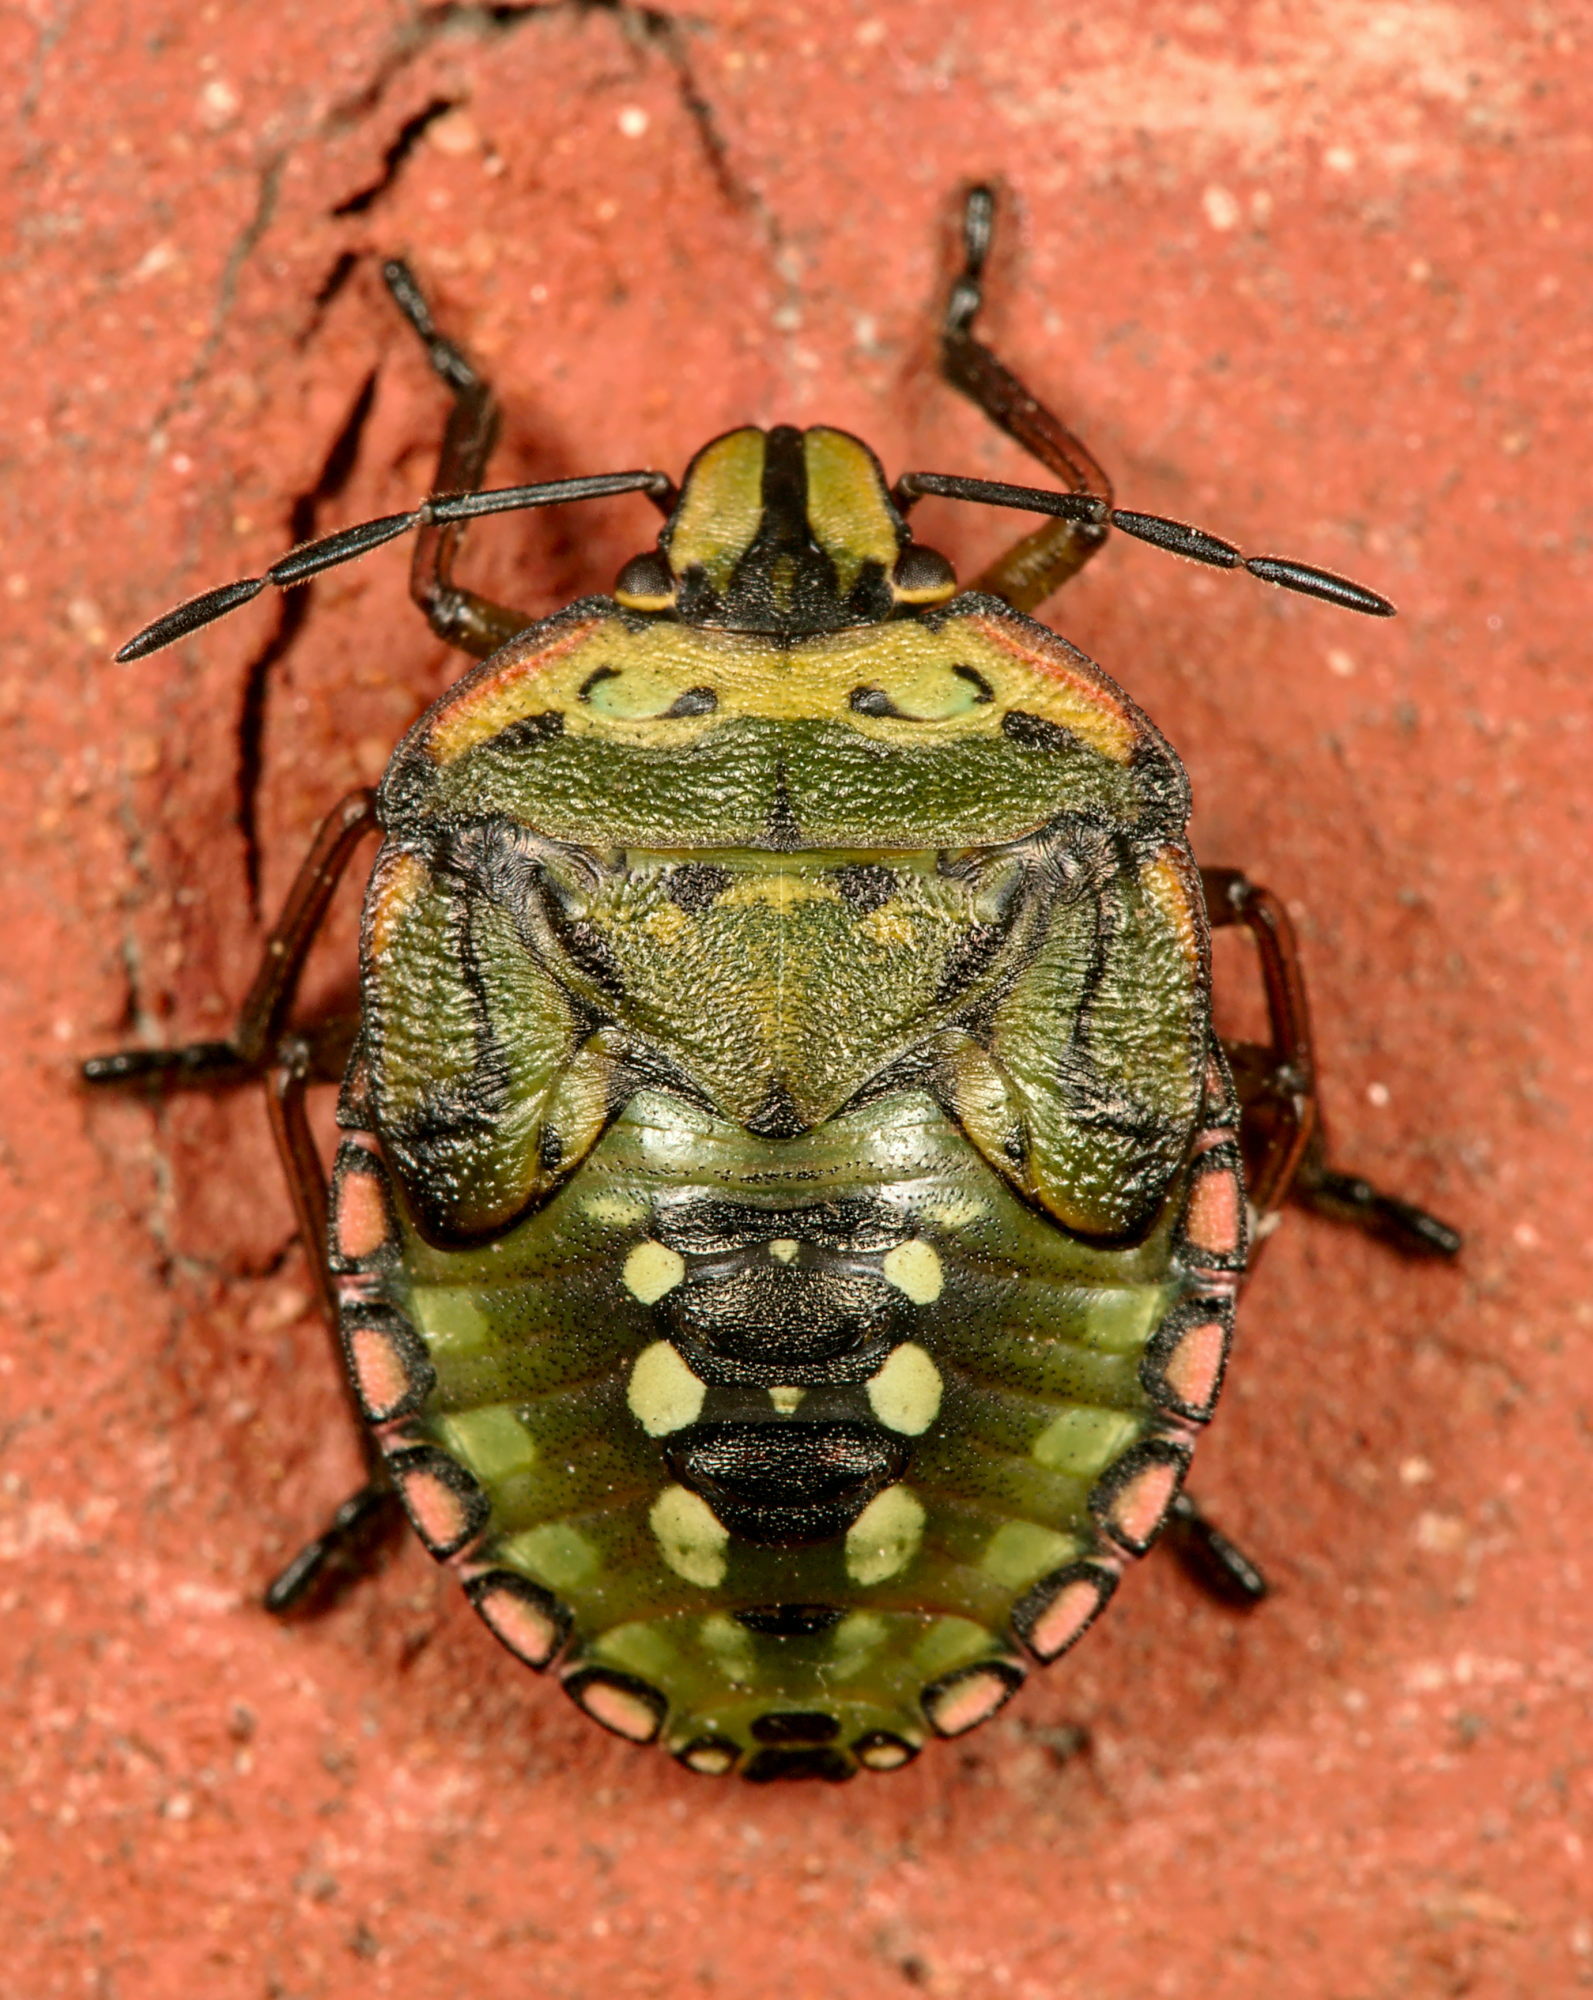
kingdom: Animalia
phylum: Arthropoda
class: Insecta
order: Hemiptera
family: Pentatomidae
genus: Nezara
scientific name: Nezara viridula
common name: Southern green stink bug
